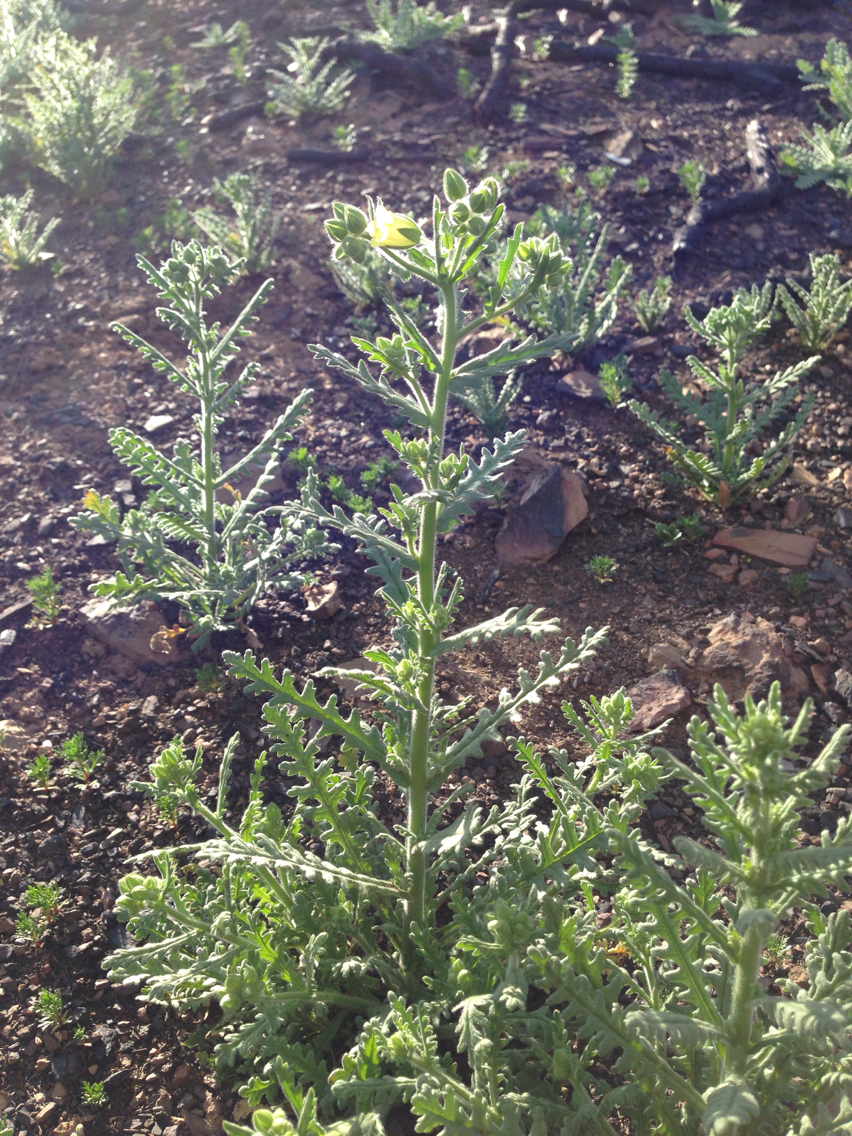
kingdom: Plantae
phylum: Tracheophyta
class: Magnoliopsida
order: Boraginales
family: Hydrophyllaceae
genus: Emmenanthe
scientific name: Emmenanthe penduliflora
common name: Whispering-bells
